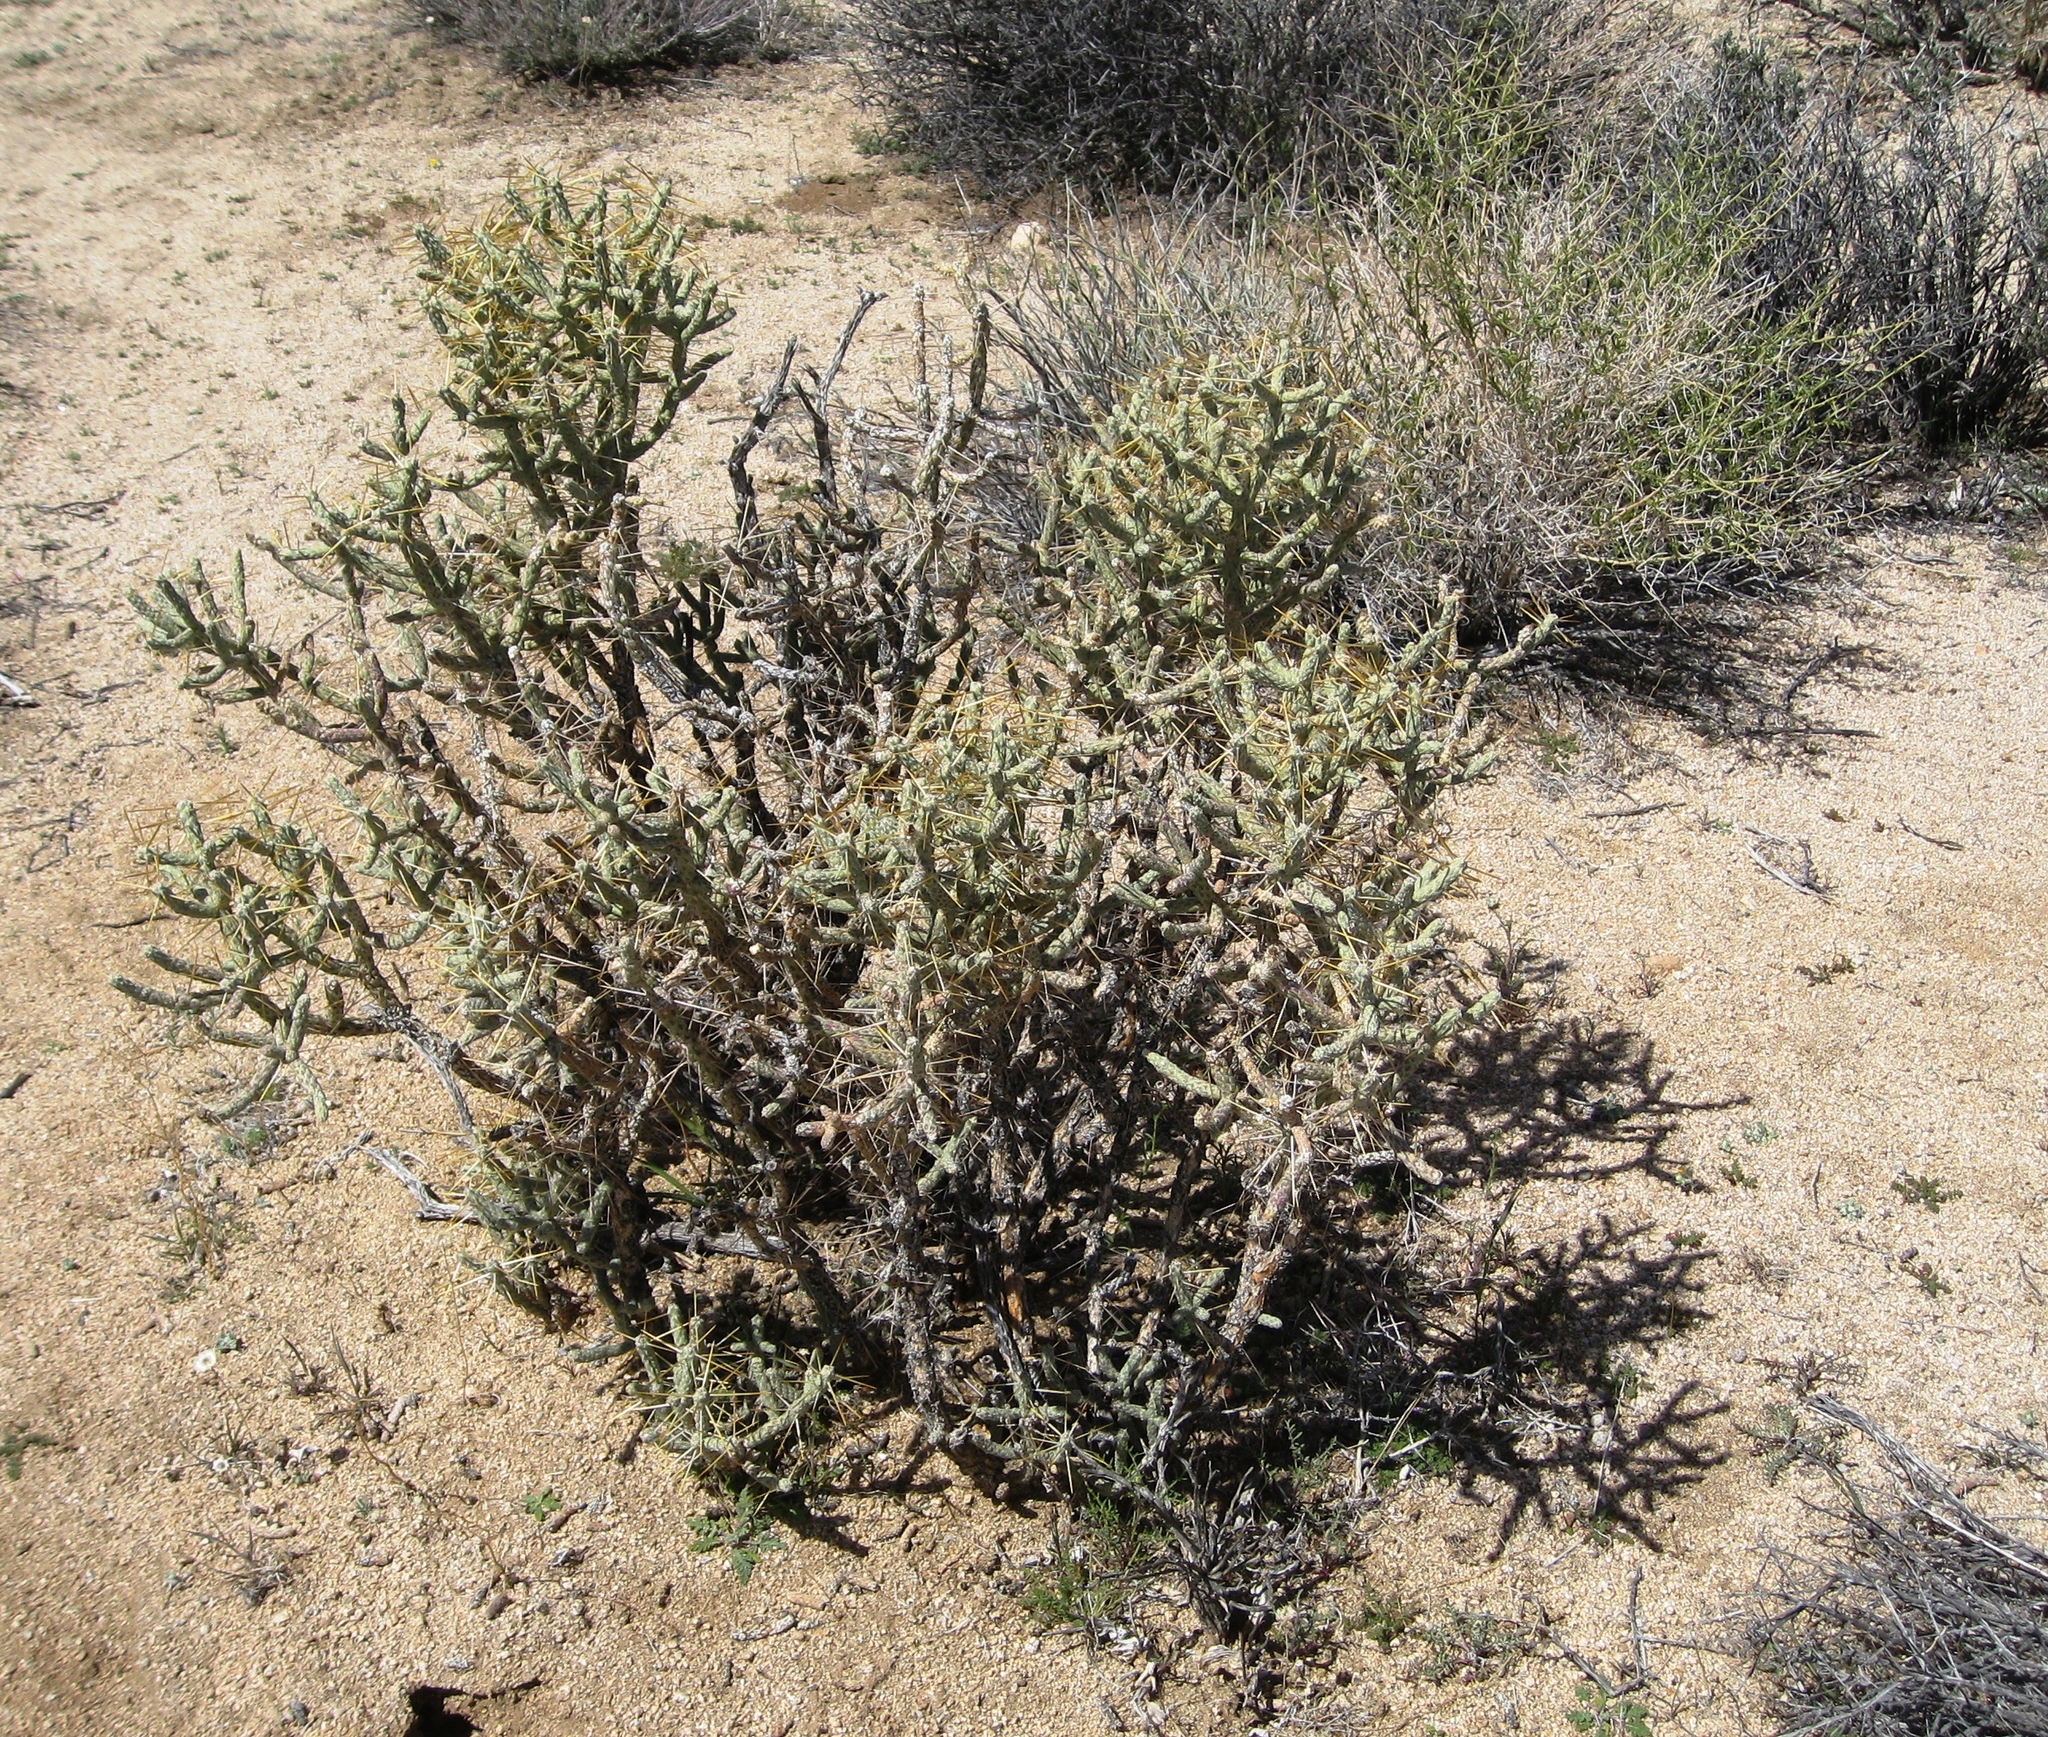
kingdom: Plantae
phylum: Tracheophyta
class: Magnoliopsida
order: Caryophyllales
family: Cactaceae
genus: Cylindropuntia
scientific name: Cylindropuntia ramosissima
